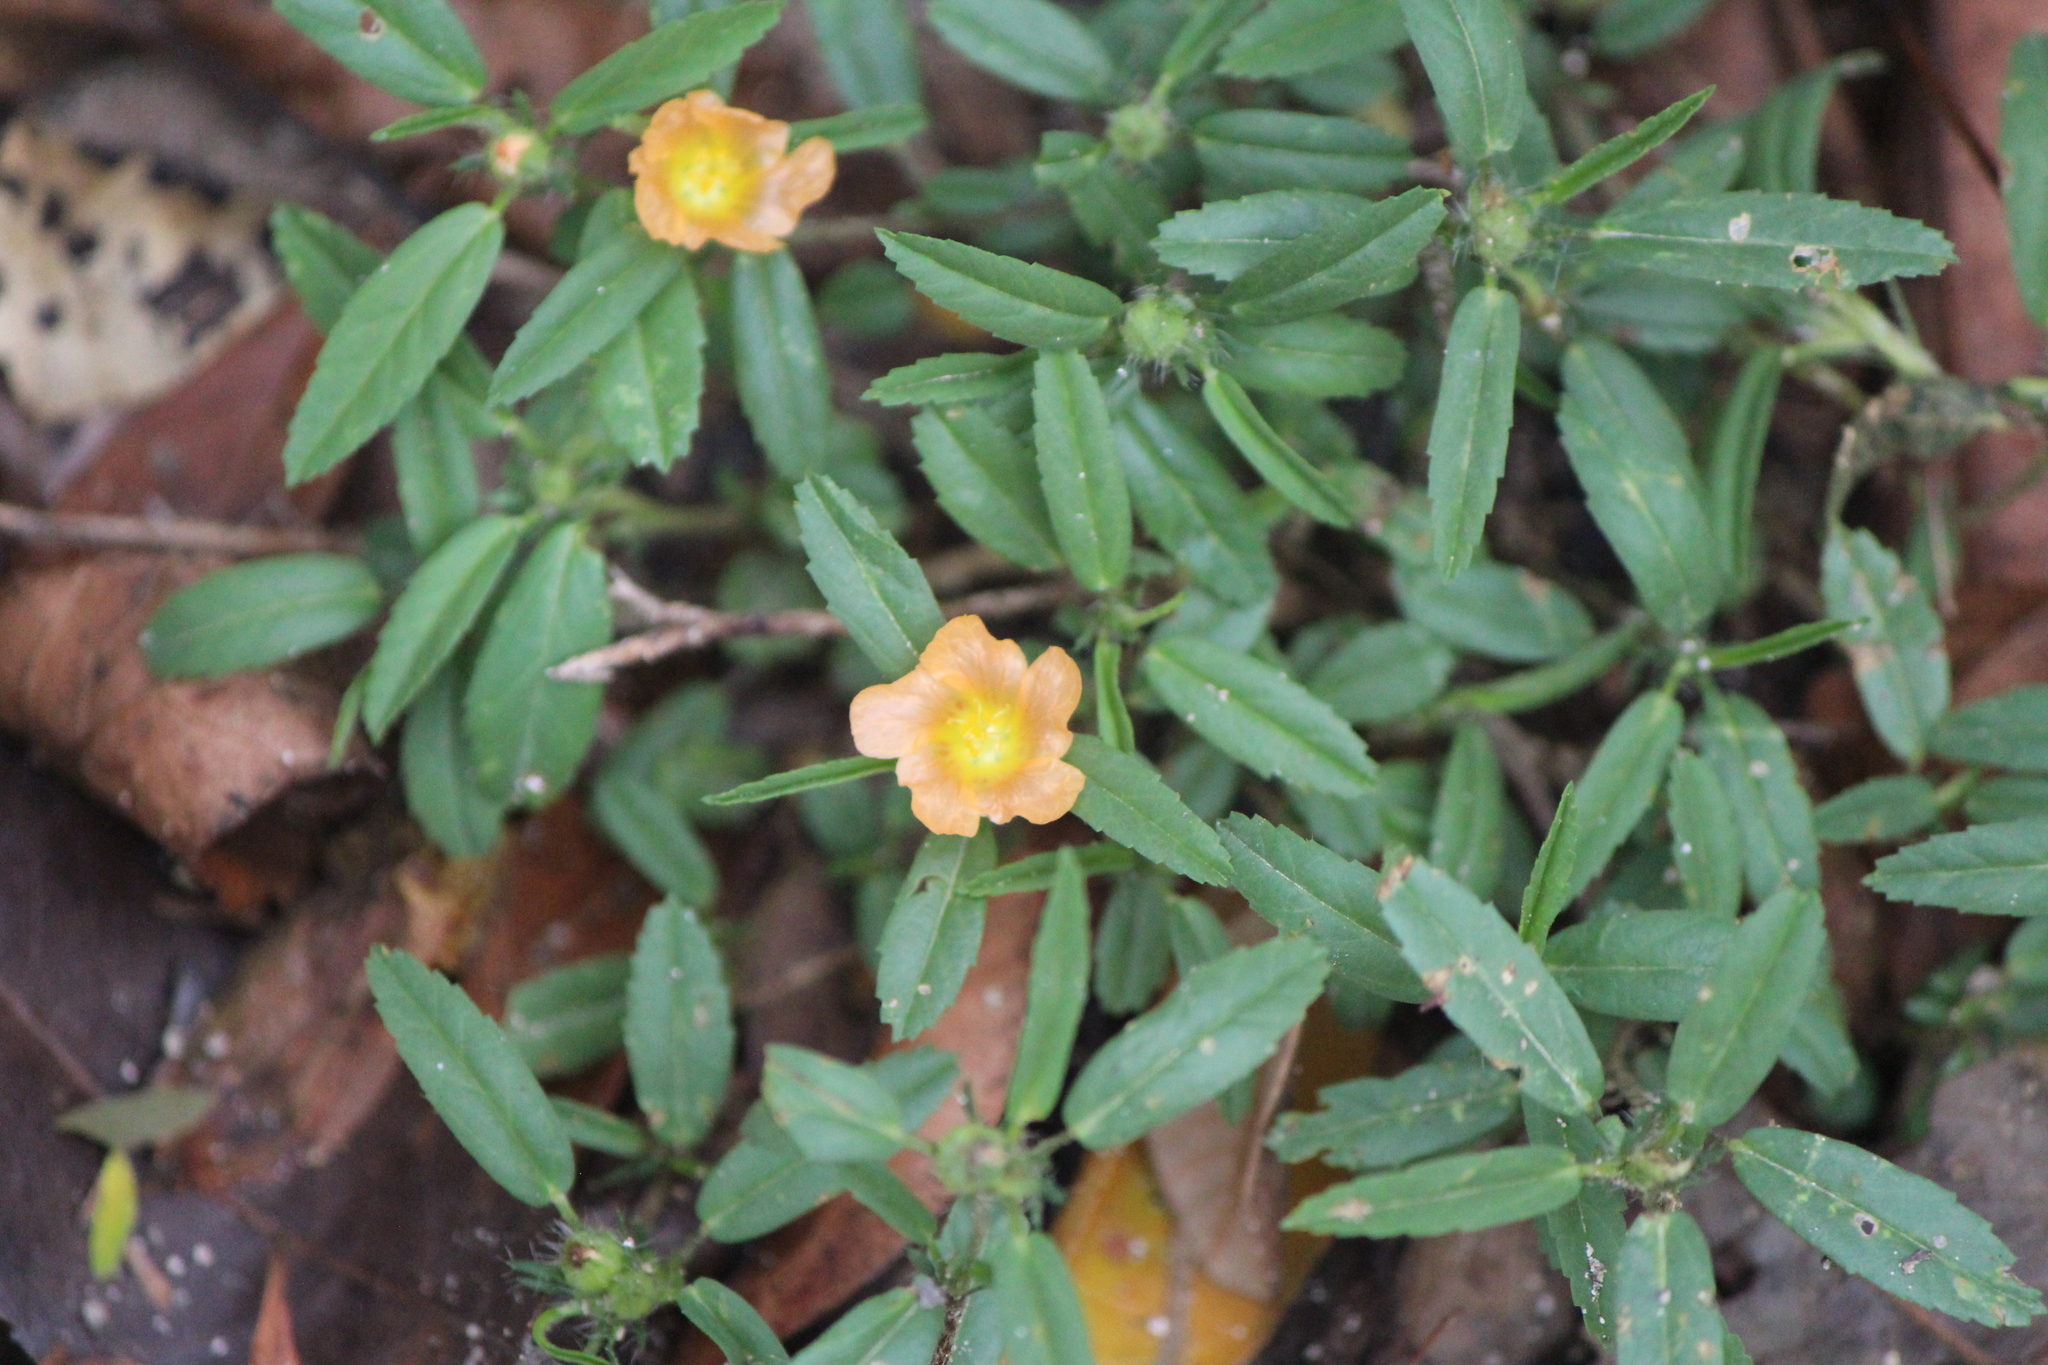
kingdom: Plantae
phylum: Tracheophyta
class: Magnoliopsida
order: Malvales
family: Malvaceae
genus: Sida
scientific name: Sida ciliaris
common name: Bracted fanpetals
